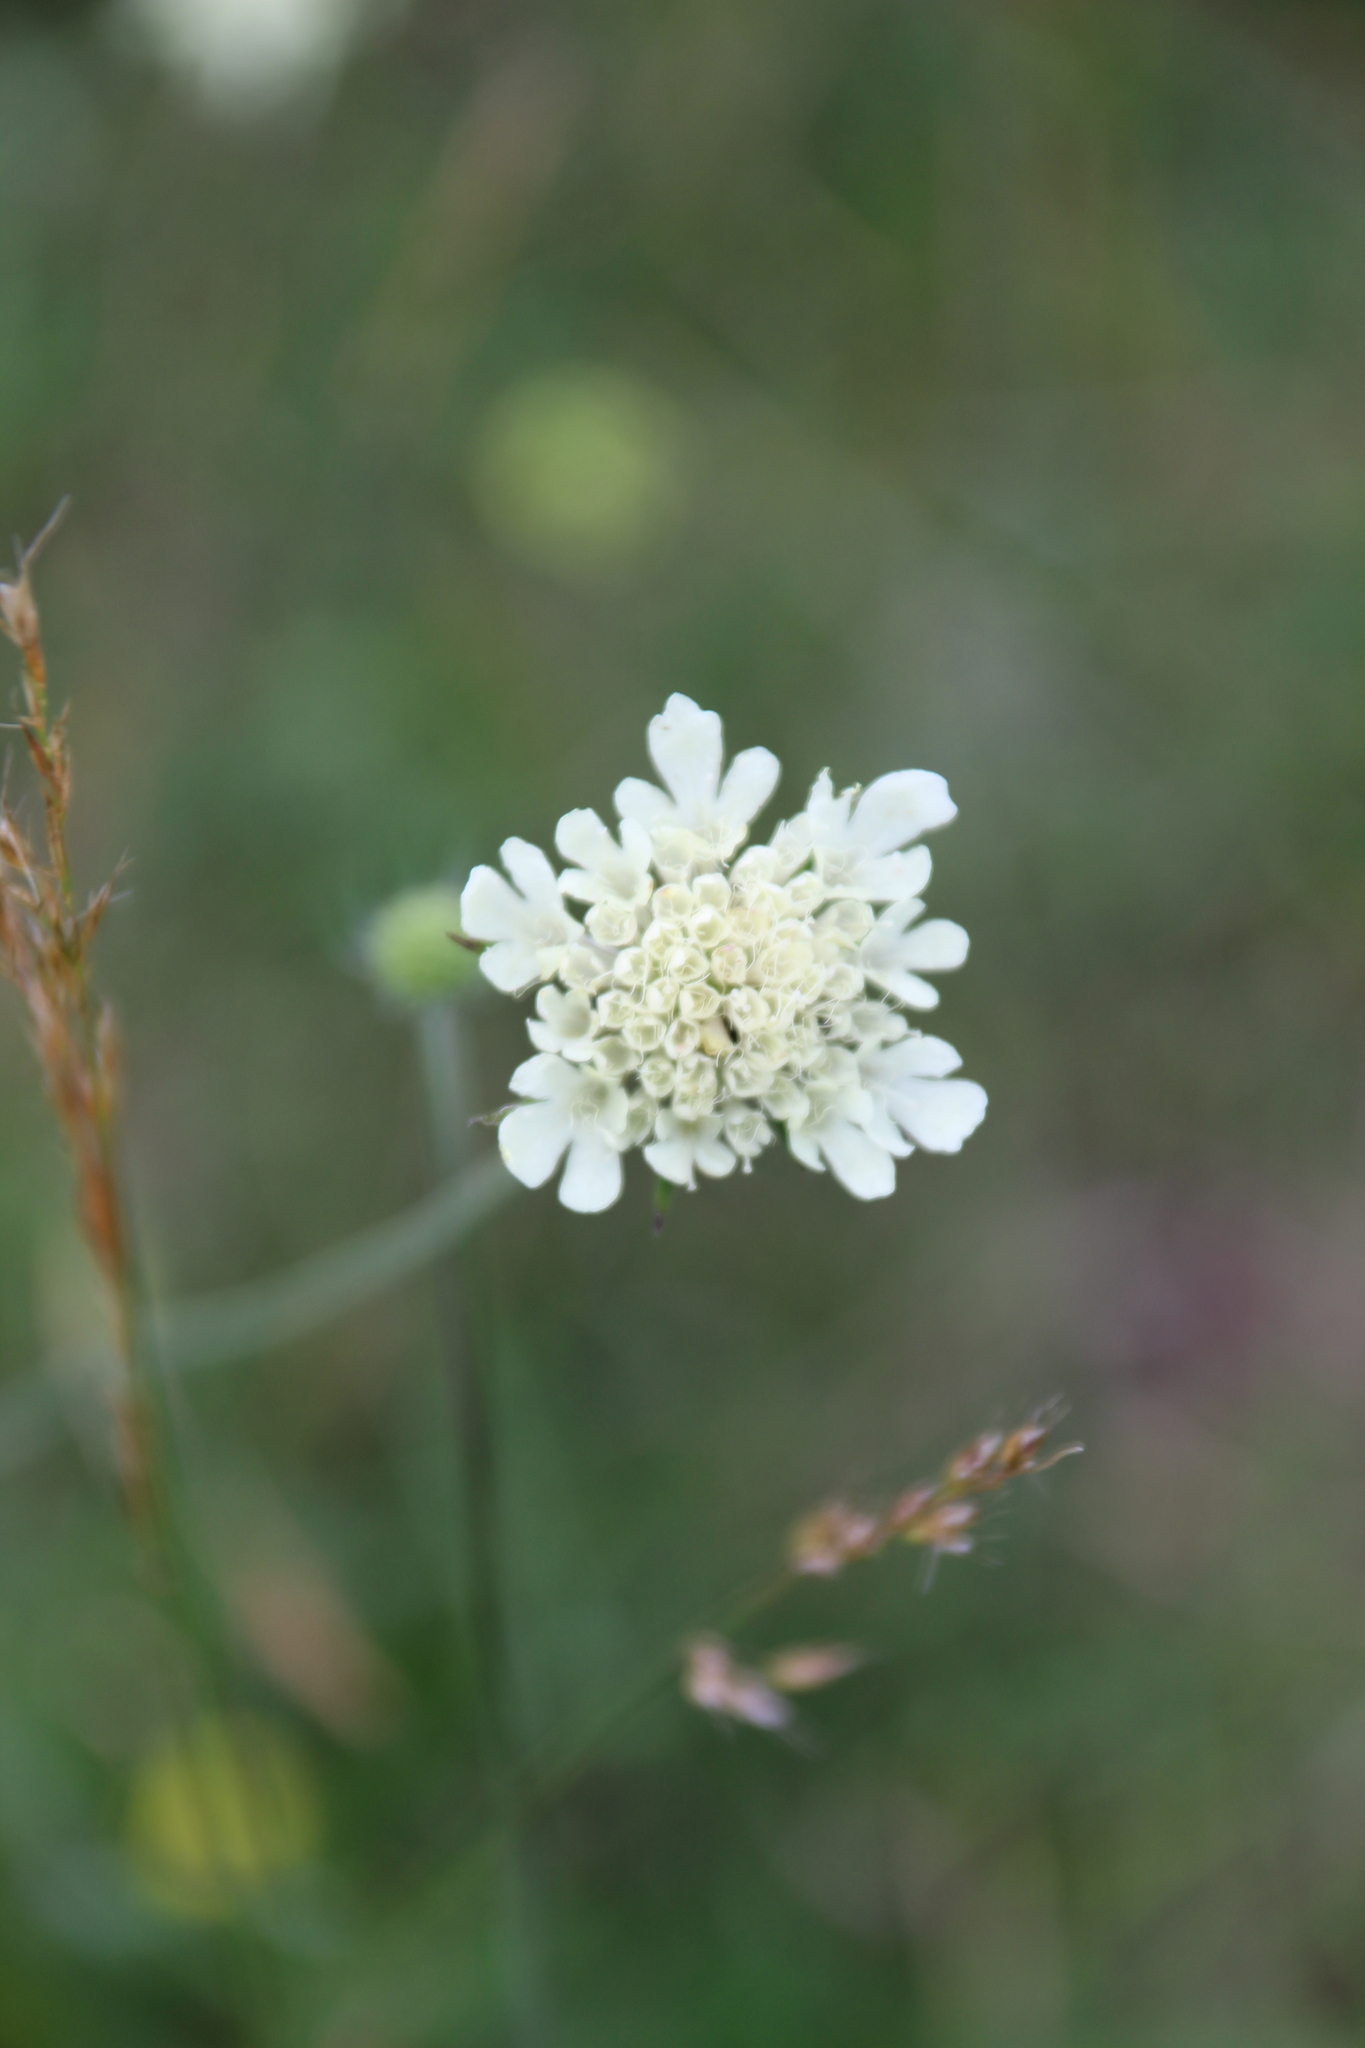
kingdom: Plantae
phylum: Tracheophyta
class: Magnoliopsida
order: Dipsacales
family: Caprifoliaceae
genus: Scabiosa
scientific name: Scabiosa ochroleuca
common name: Cream pincushions
